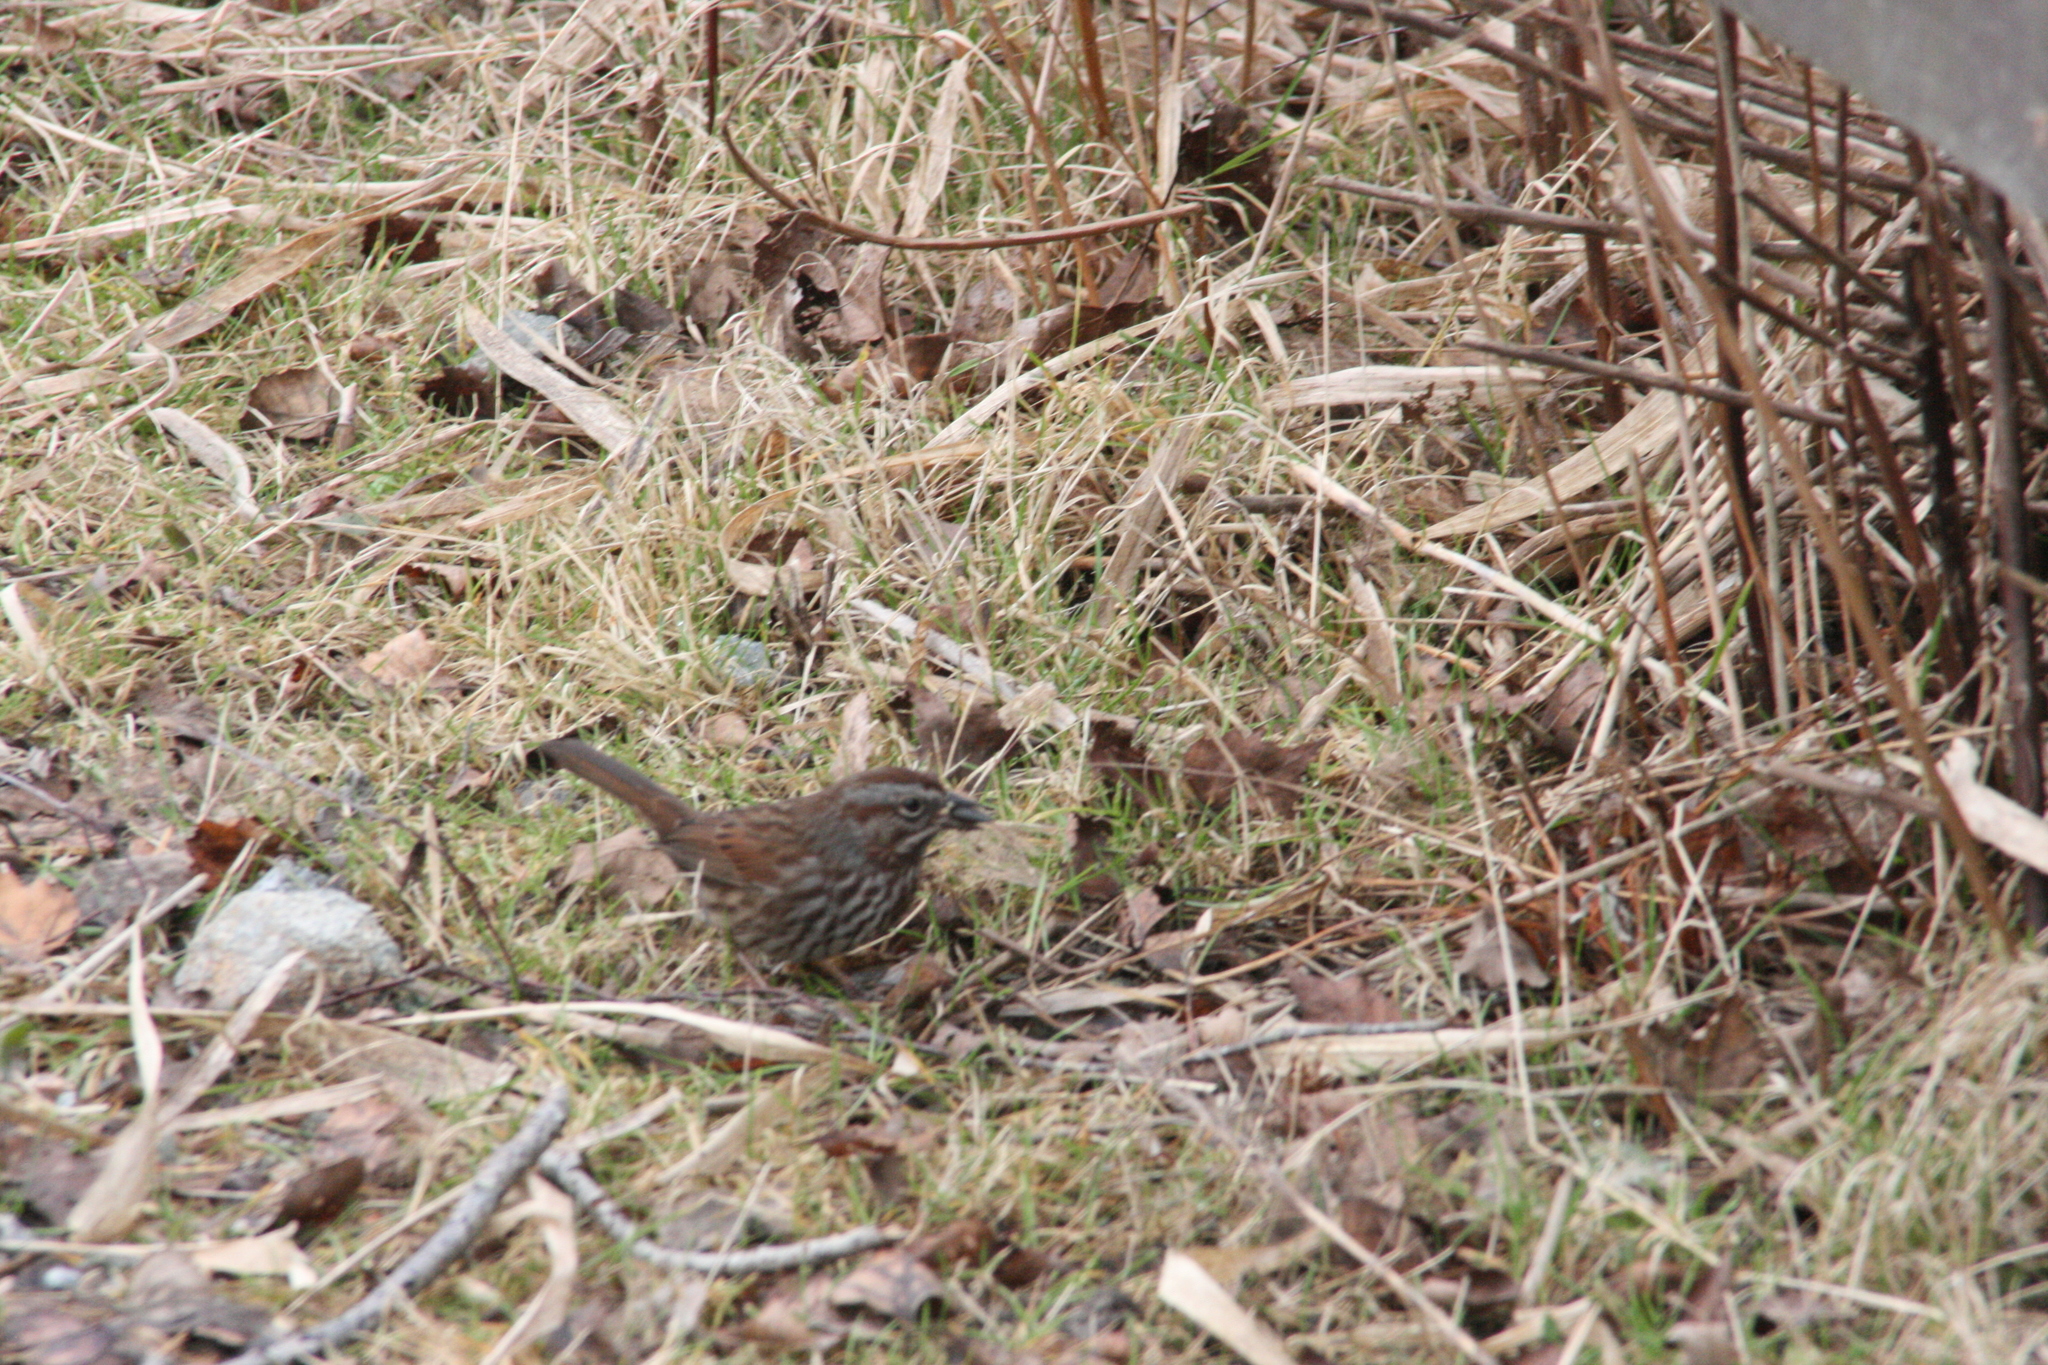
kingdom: Animalia
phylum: Chordata
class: Aves
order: Passeriformes
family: Passerellidae
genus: Melospiza
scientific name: Melospiza melodia
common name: Song sparrow
